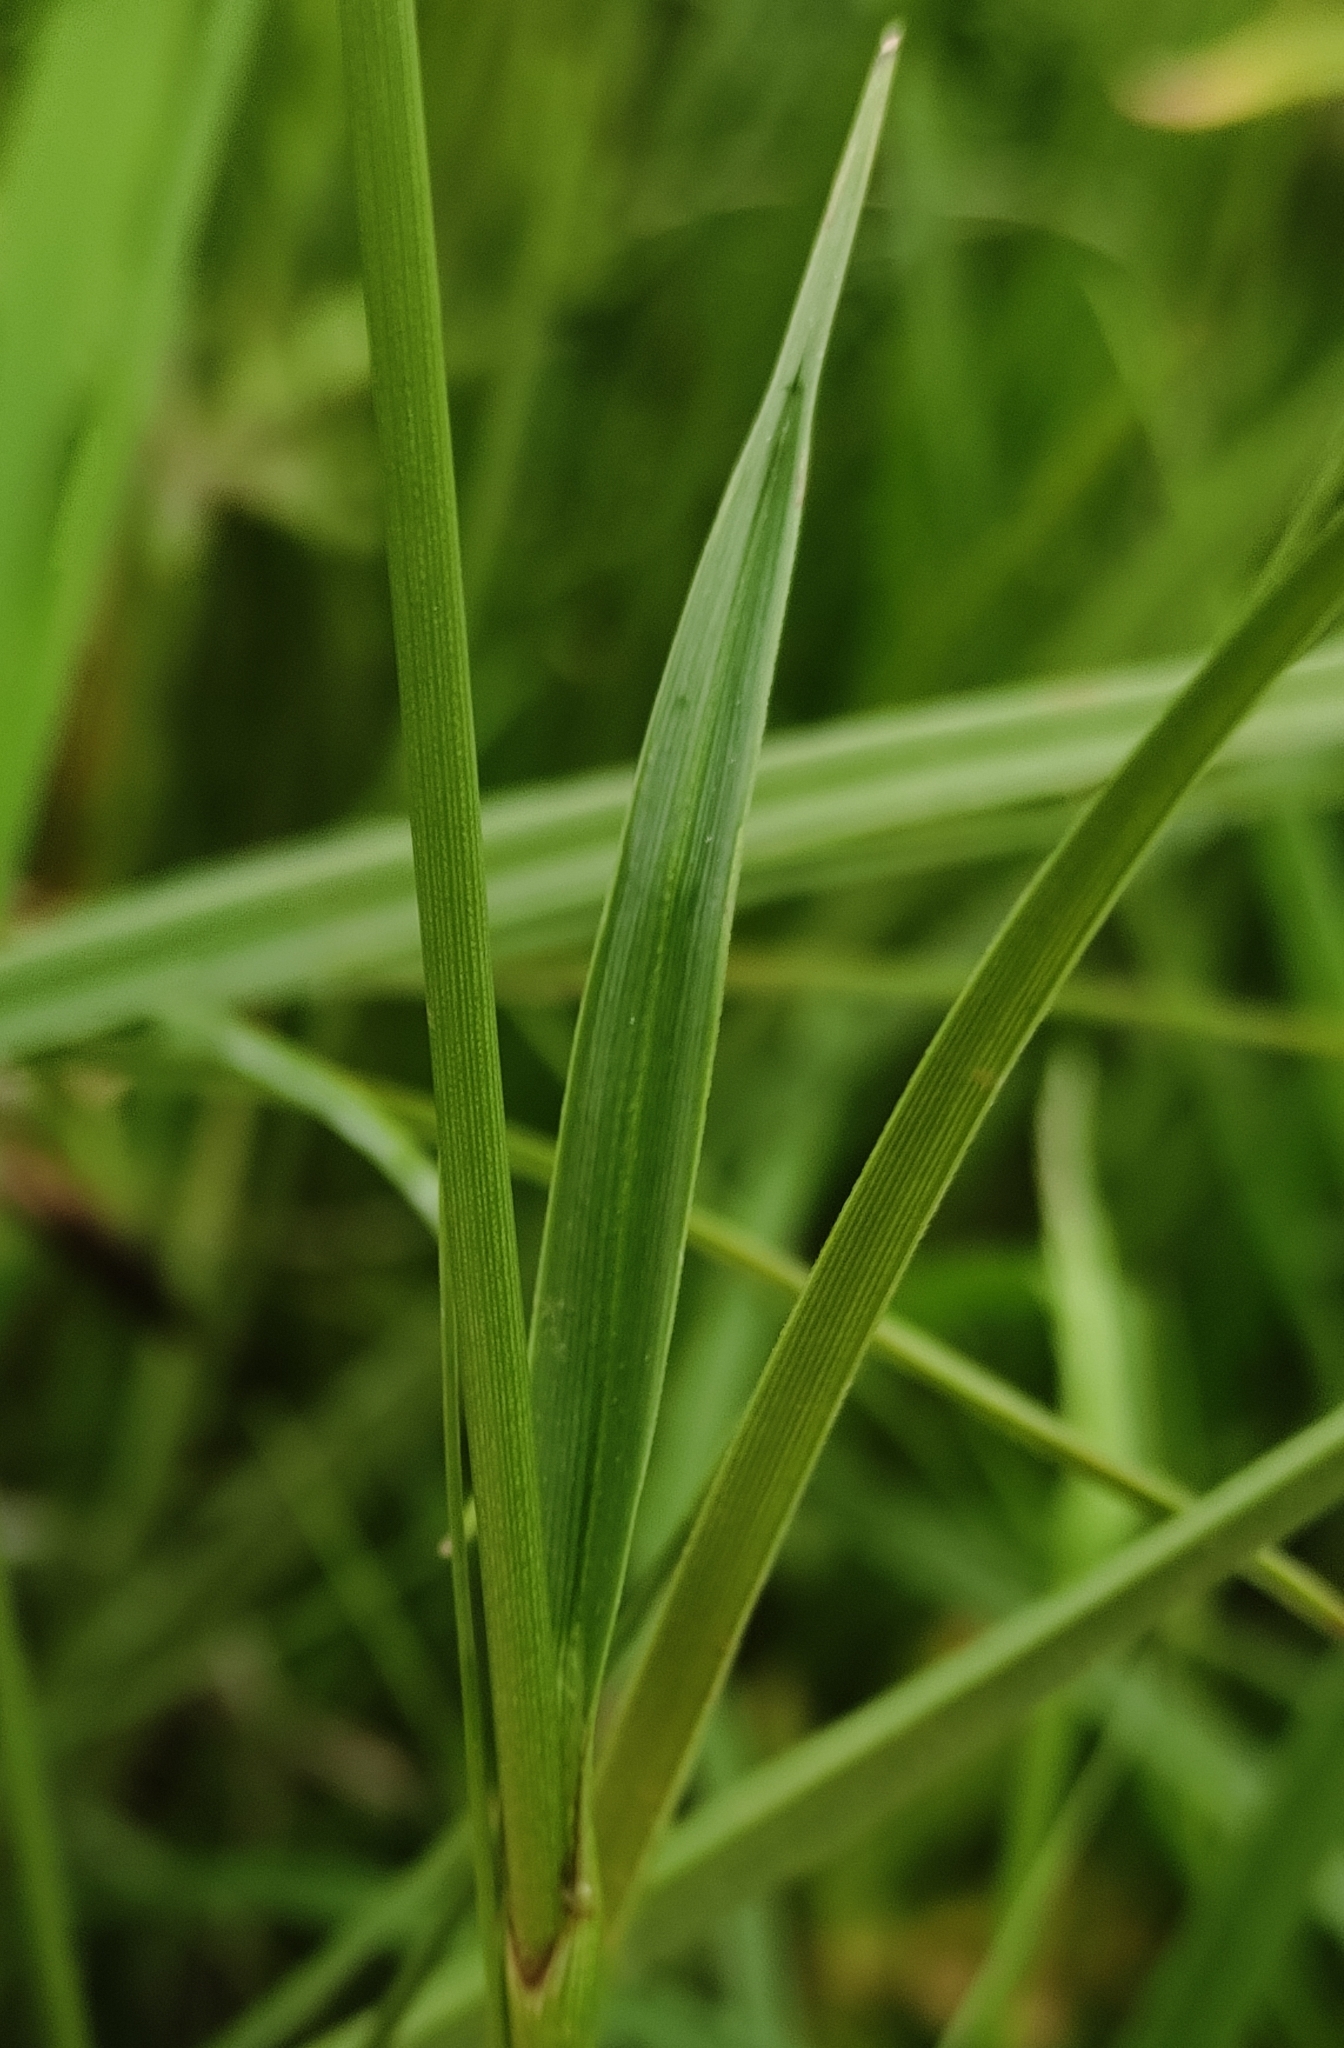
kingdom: Plantae
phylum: Tracheophyta
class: Liliopsida
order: Poales
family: Cyperaceae
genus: Eriophorum
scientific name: Eriophorum angustifolium
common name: Common cottongrass
